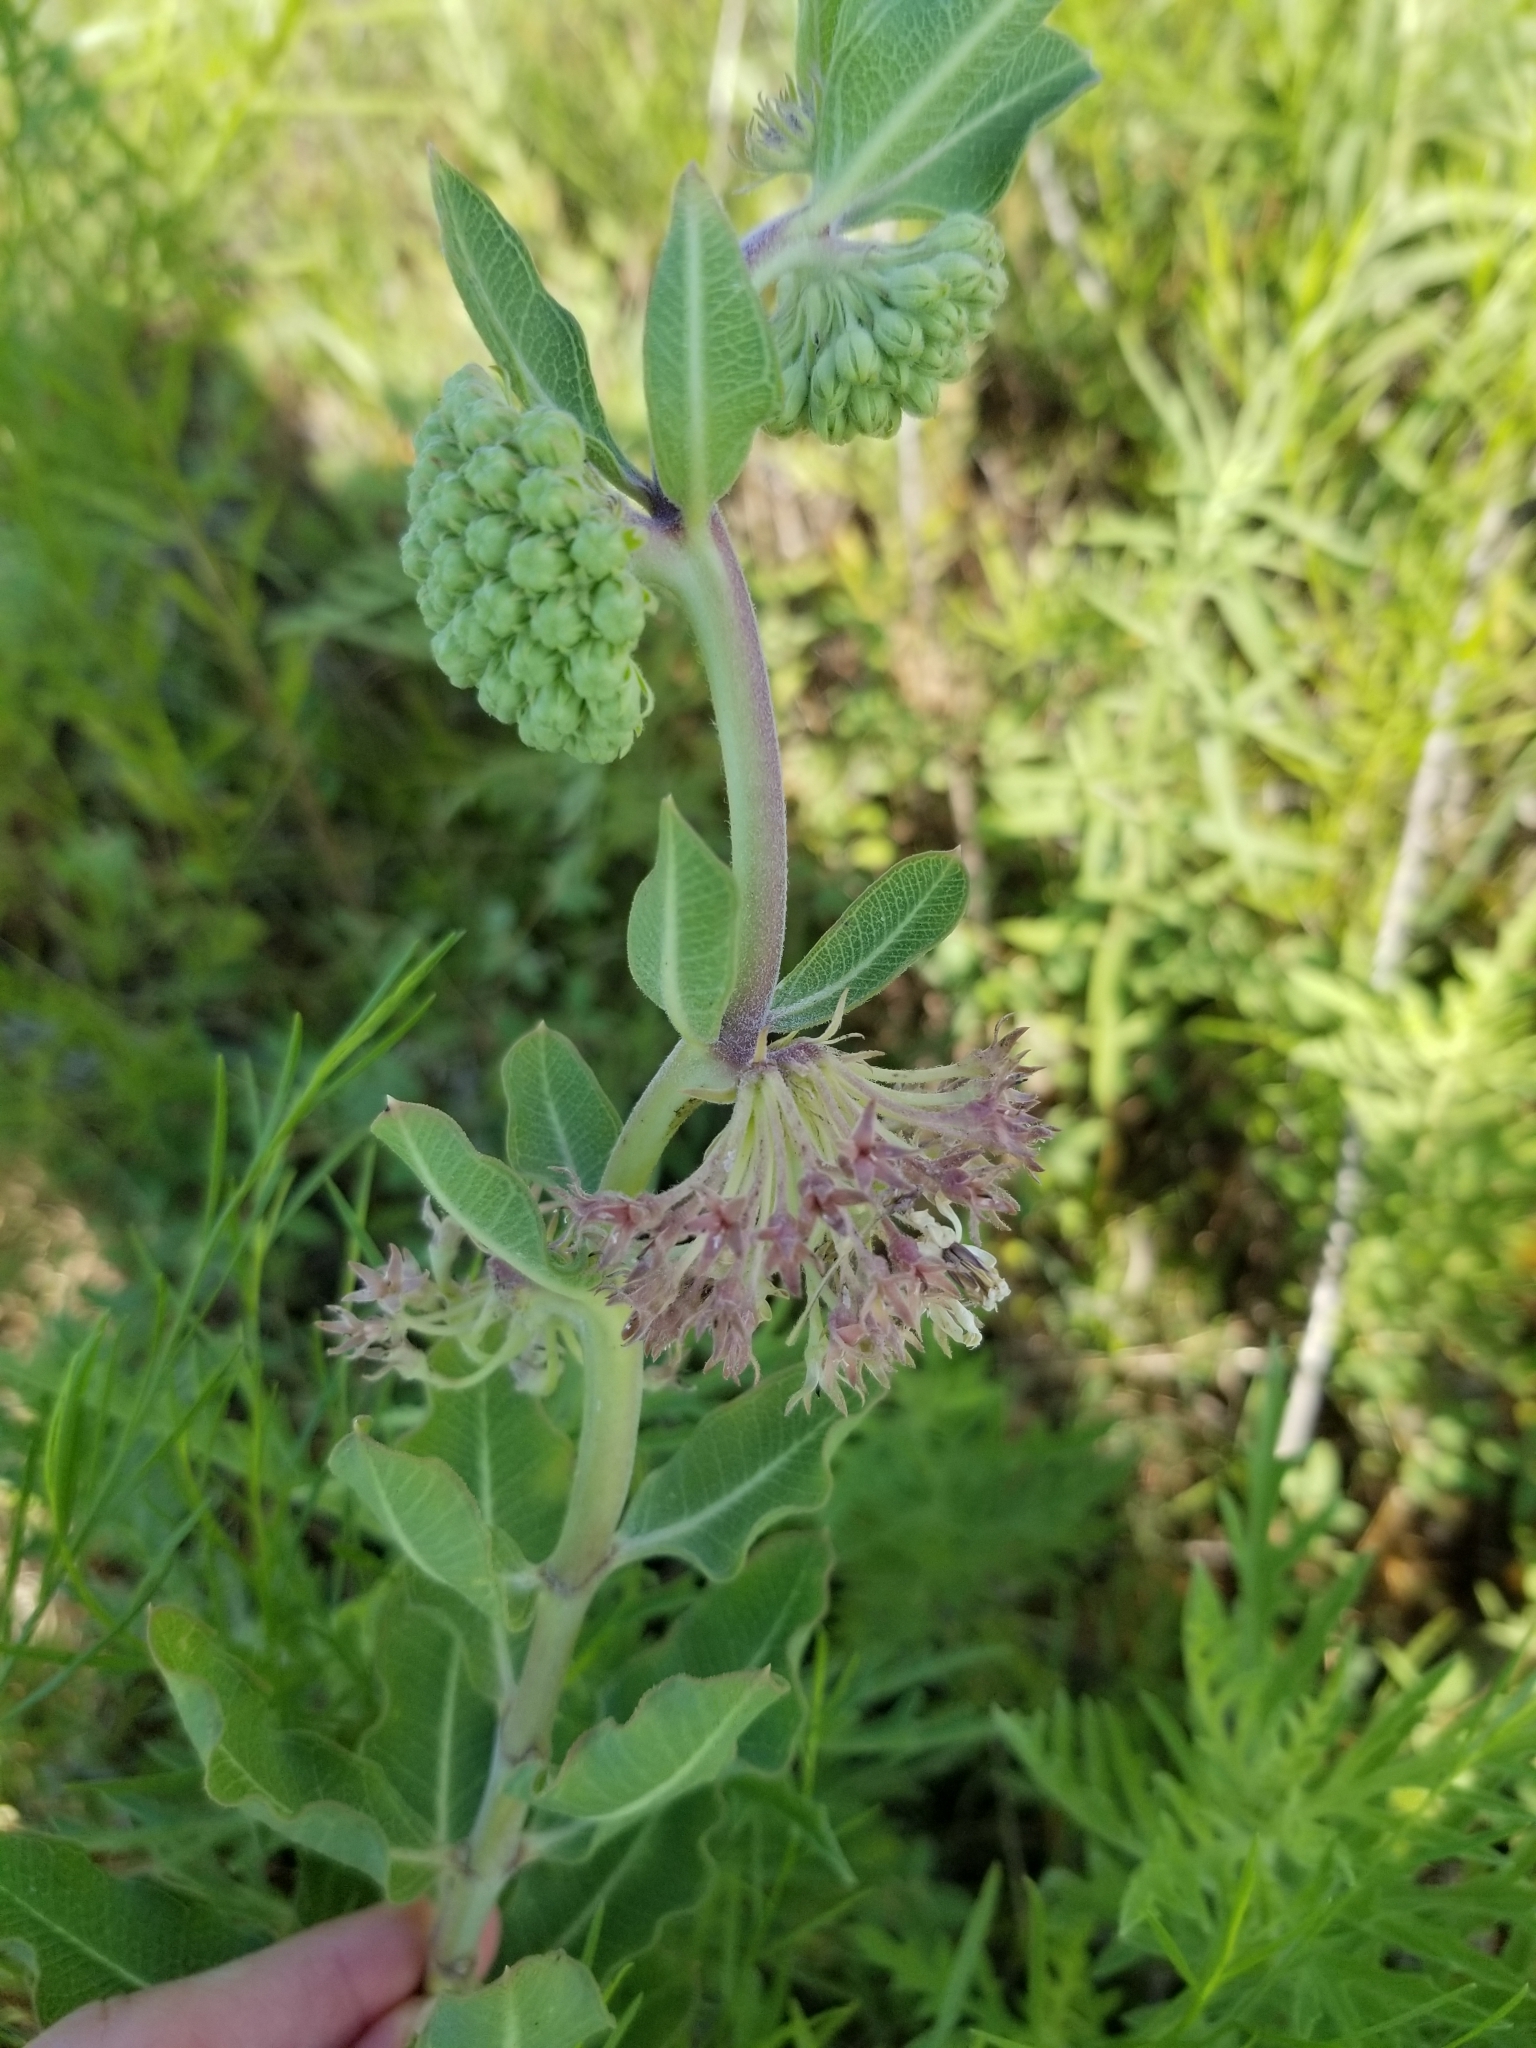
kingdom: Plantae
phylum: Tracheophyta
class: Magnoliopsida
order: Gentianales
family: Apocynaceae
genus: Asclepias
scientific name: Asclepias viridiflora
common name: Green comet milkweed
